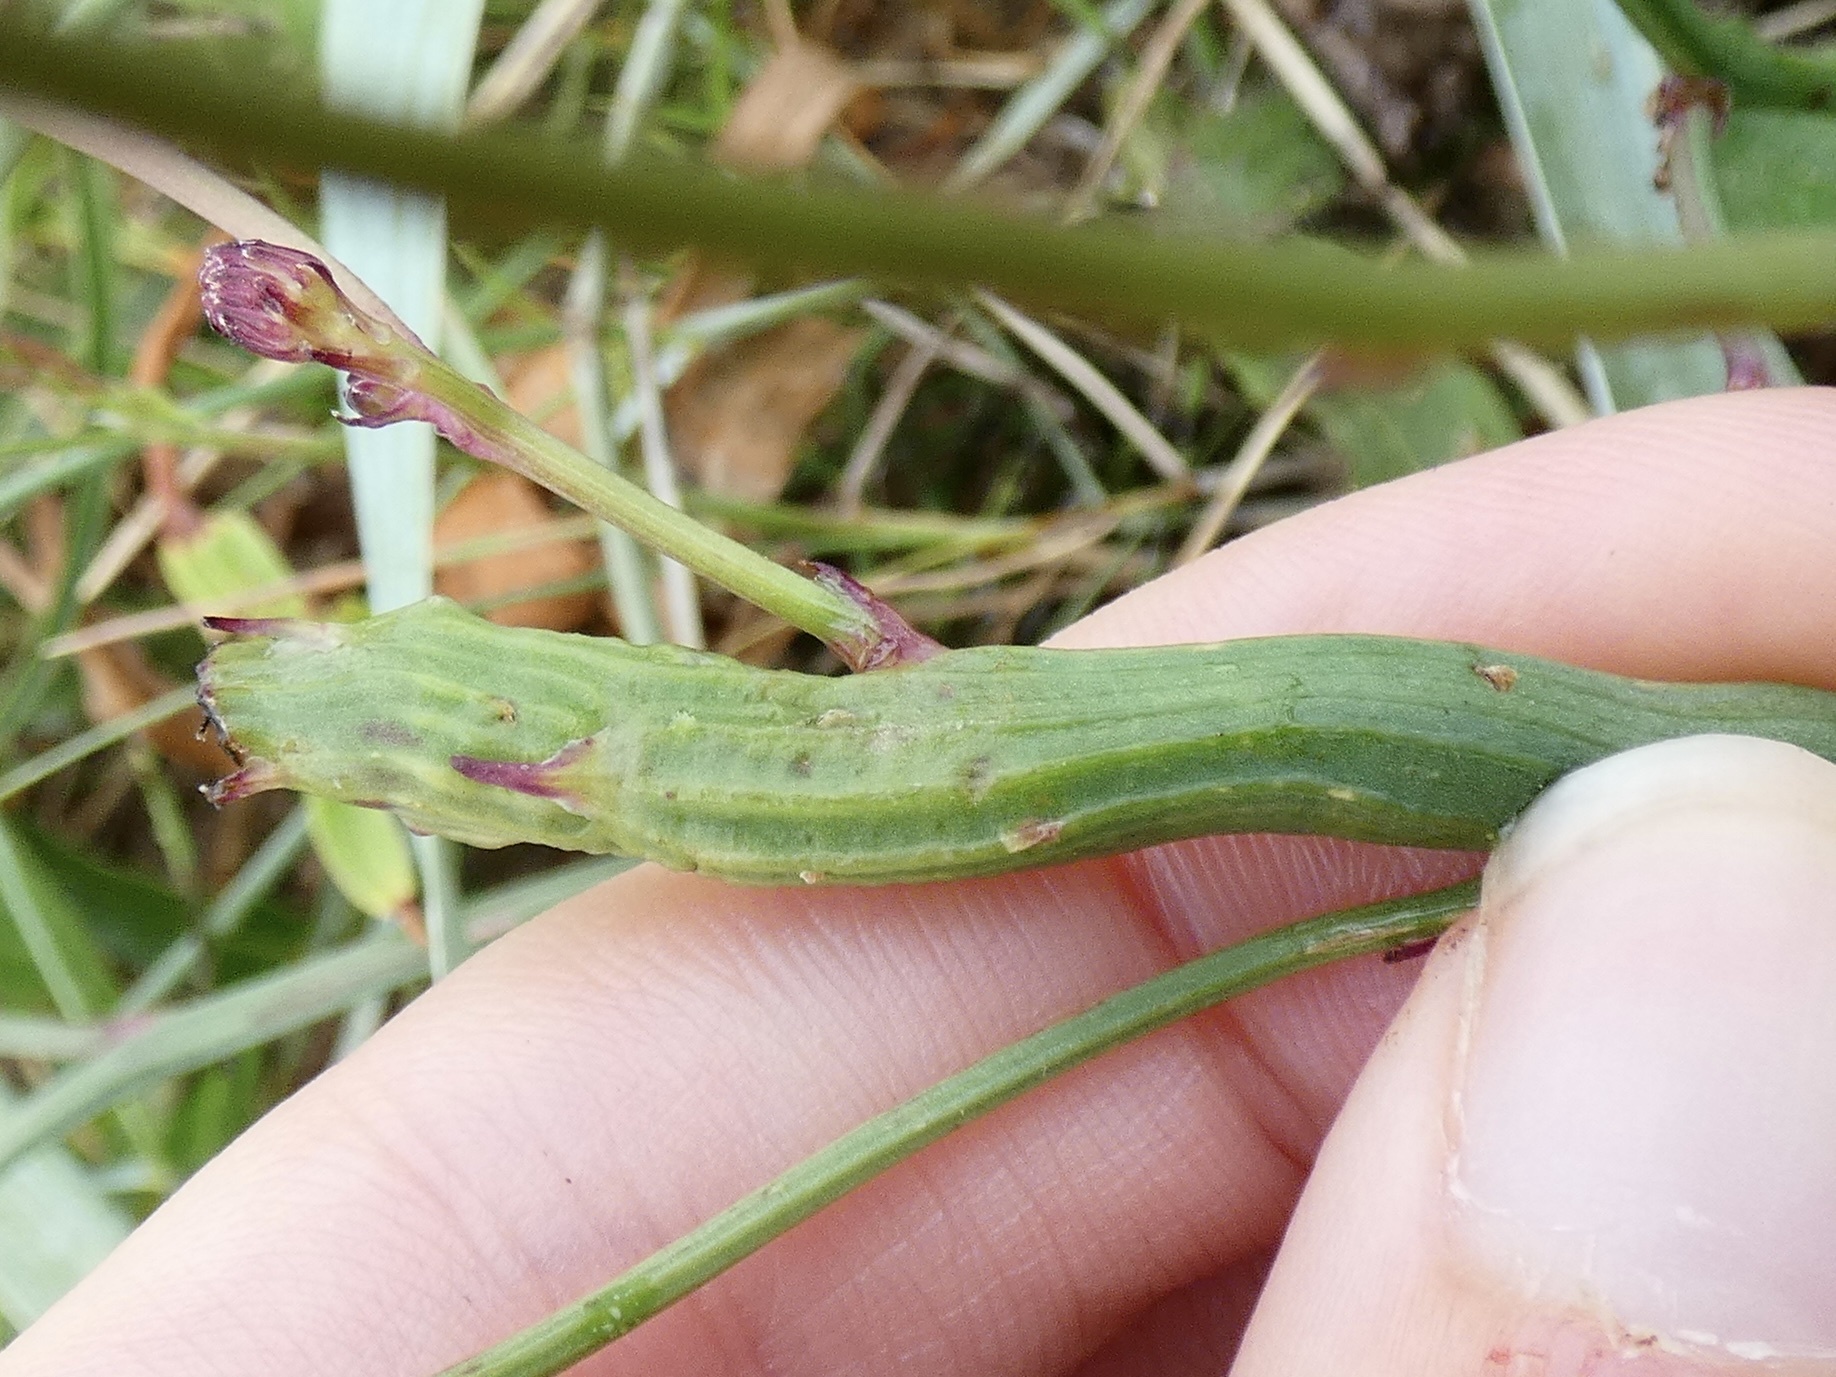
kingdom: Animalia
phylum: Arthropoda
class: Insecta
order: Hymenoptera
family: Cynipidae
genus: Phanacis
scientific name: Phanacis hypochoeridis
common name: Gall wasp
